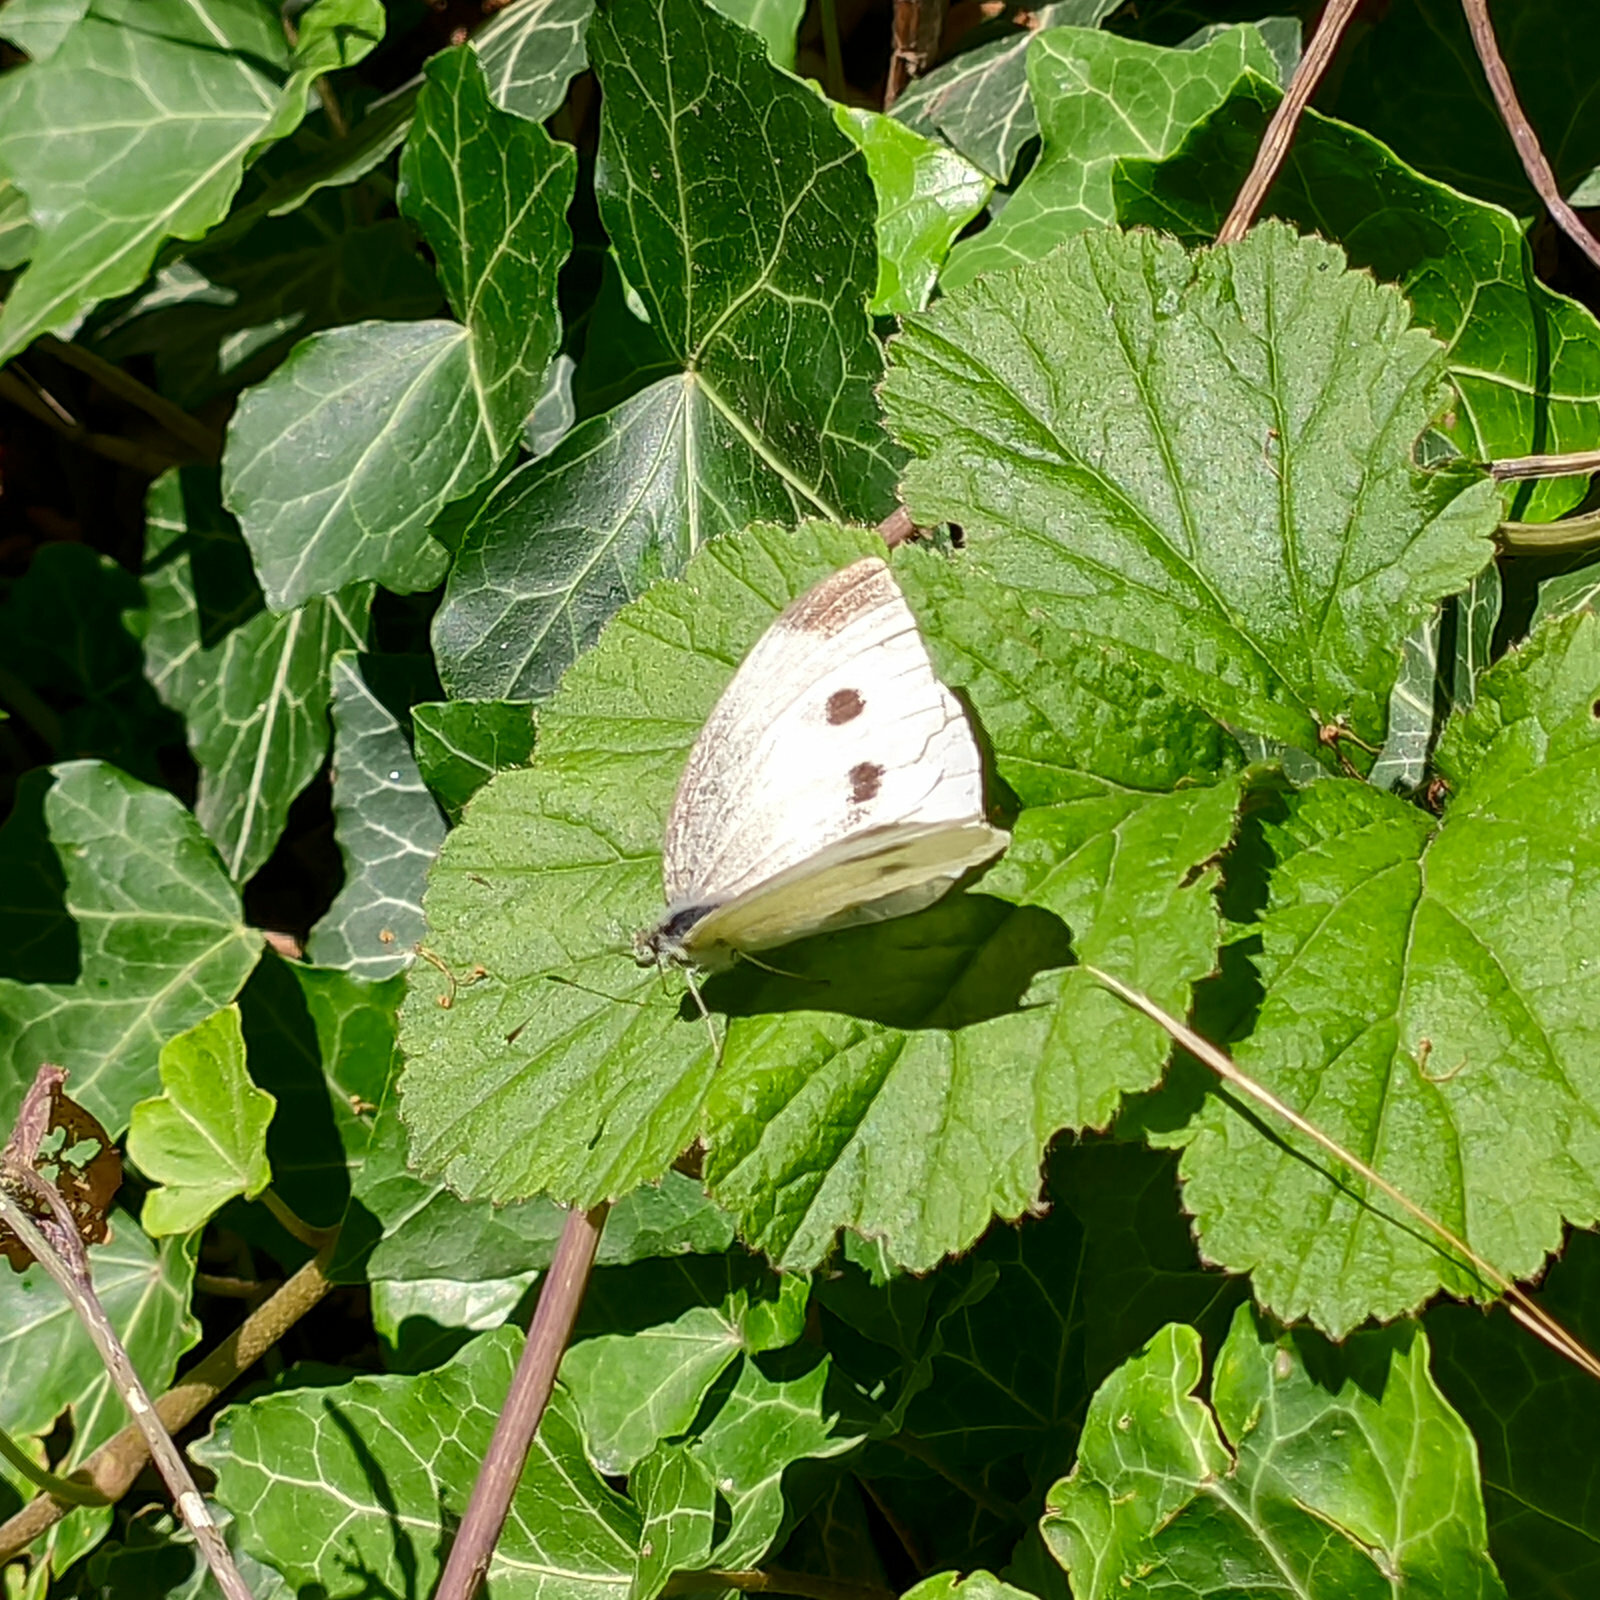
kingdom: Animalia
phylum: Arthropoda
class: Insecta
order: Lepidoptera
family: Pieridae
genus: Pieris
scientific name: Pieris rapae
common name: Small white
